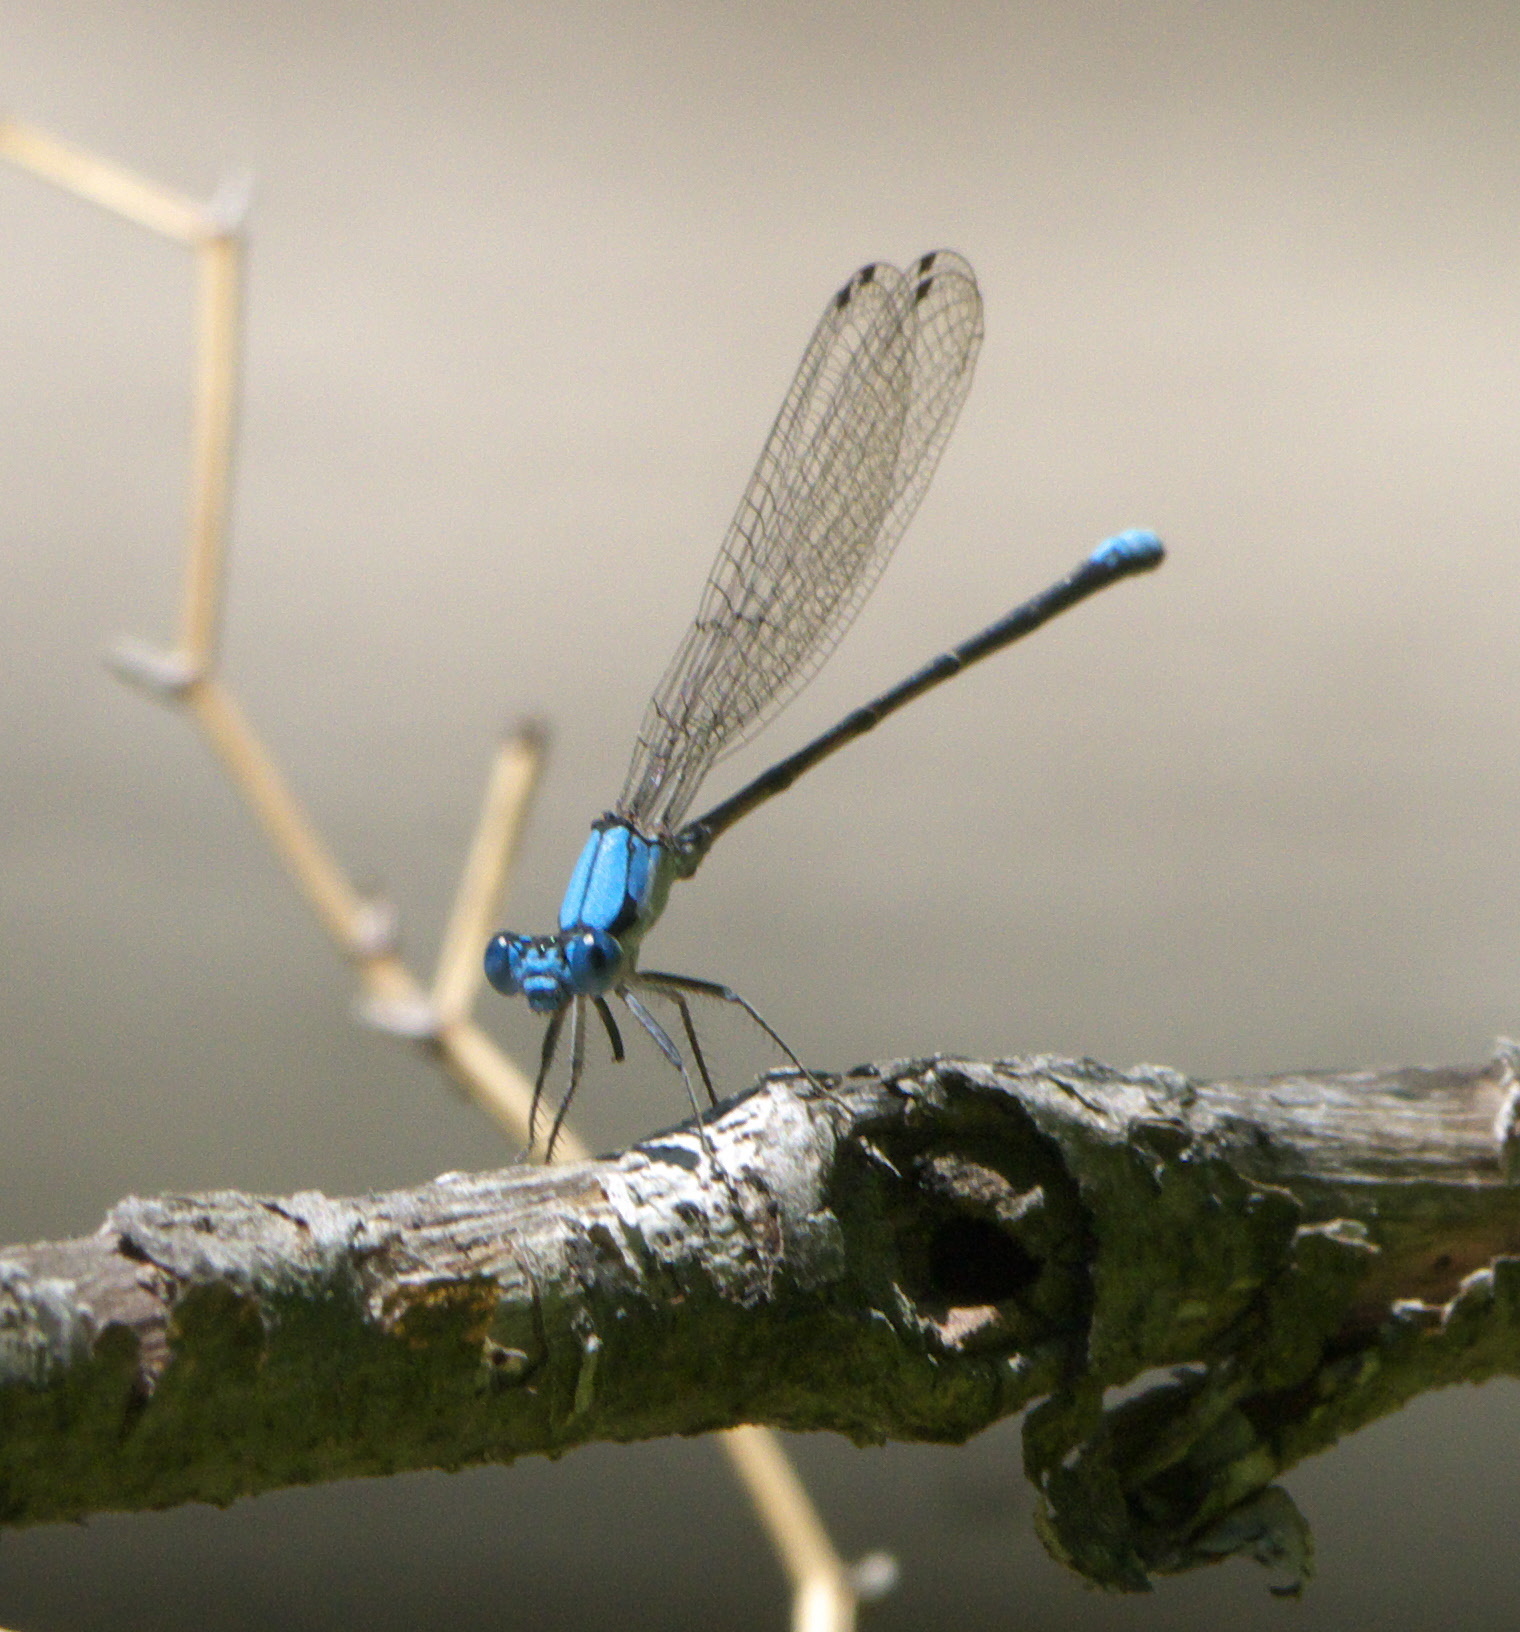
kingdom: Animalia
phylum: Arthropoda
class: Insecta
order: Odonata
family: Coenagrionidae
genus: Argia
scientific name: Argia apicalis
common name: Blue-fronted dancer
